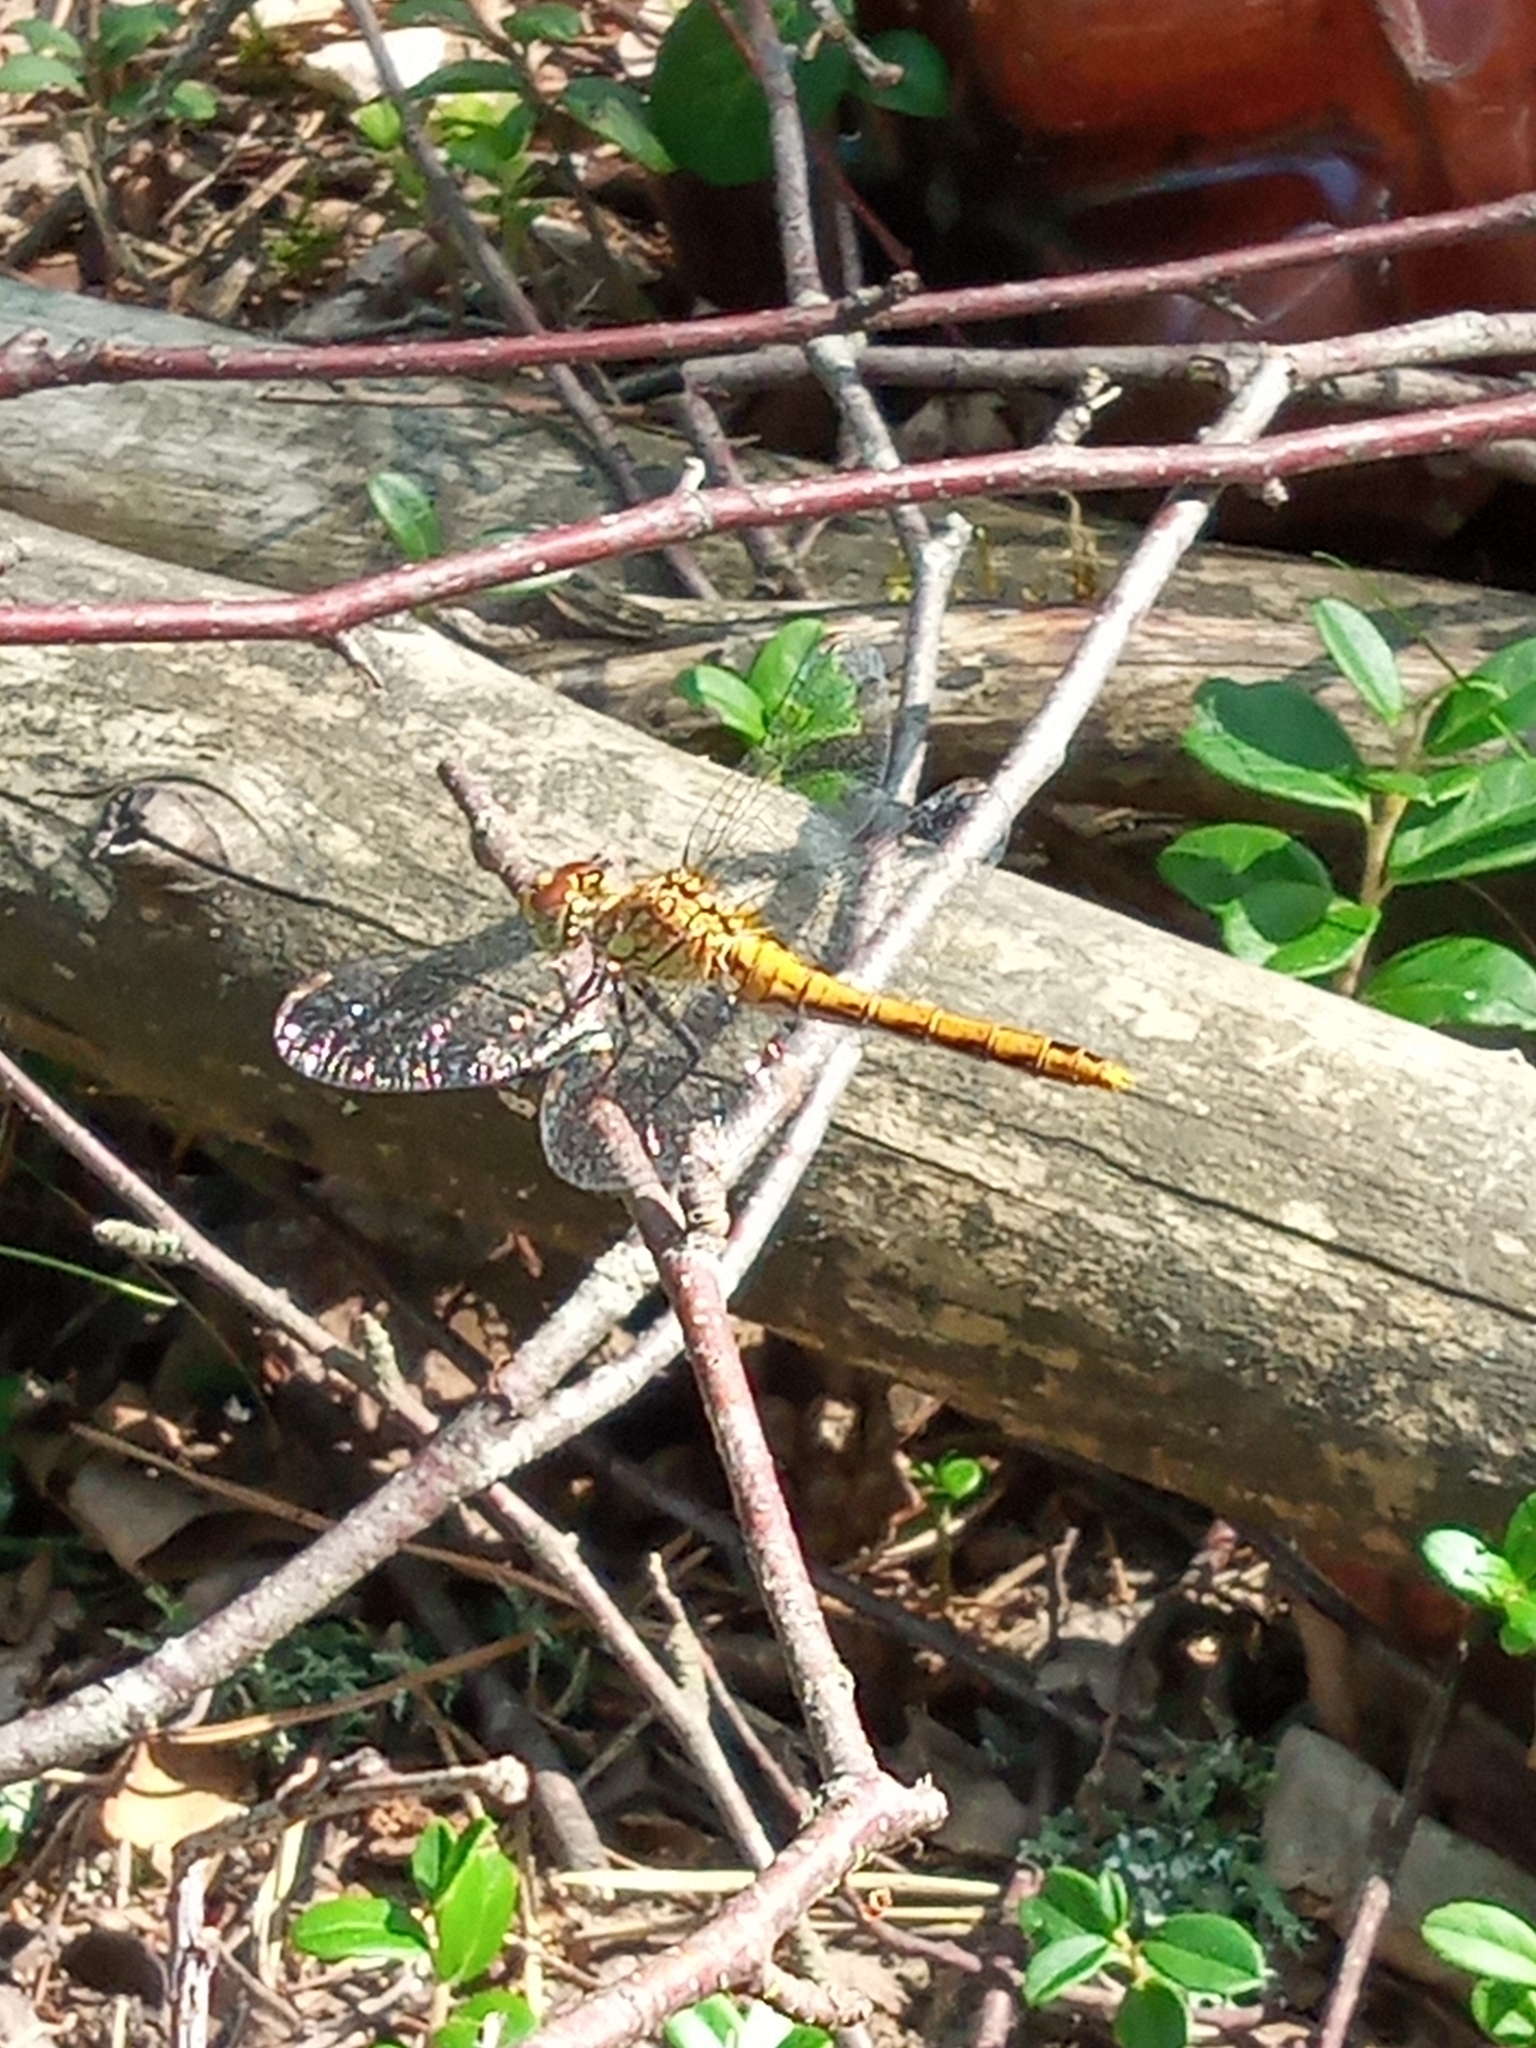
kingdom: Animalia
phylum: Arthropoda
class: Insecta
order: Odonata
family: Libellulidae
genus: Sympetrum
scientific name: Sympetrum sanguineum
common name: Ruddy darter
